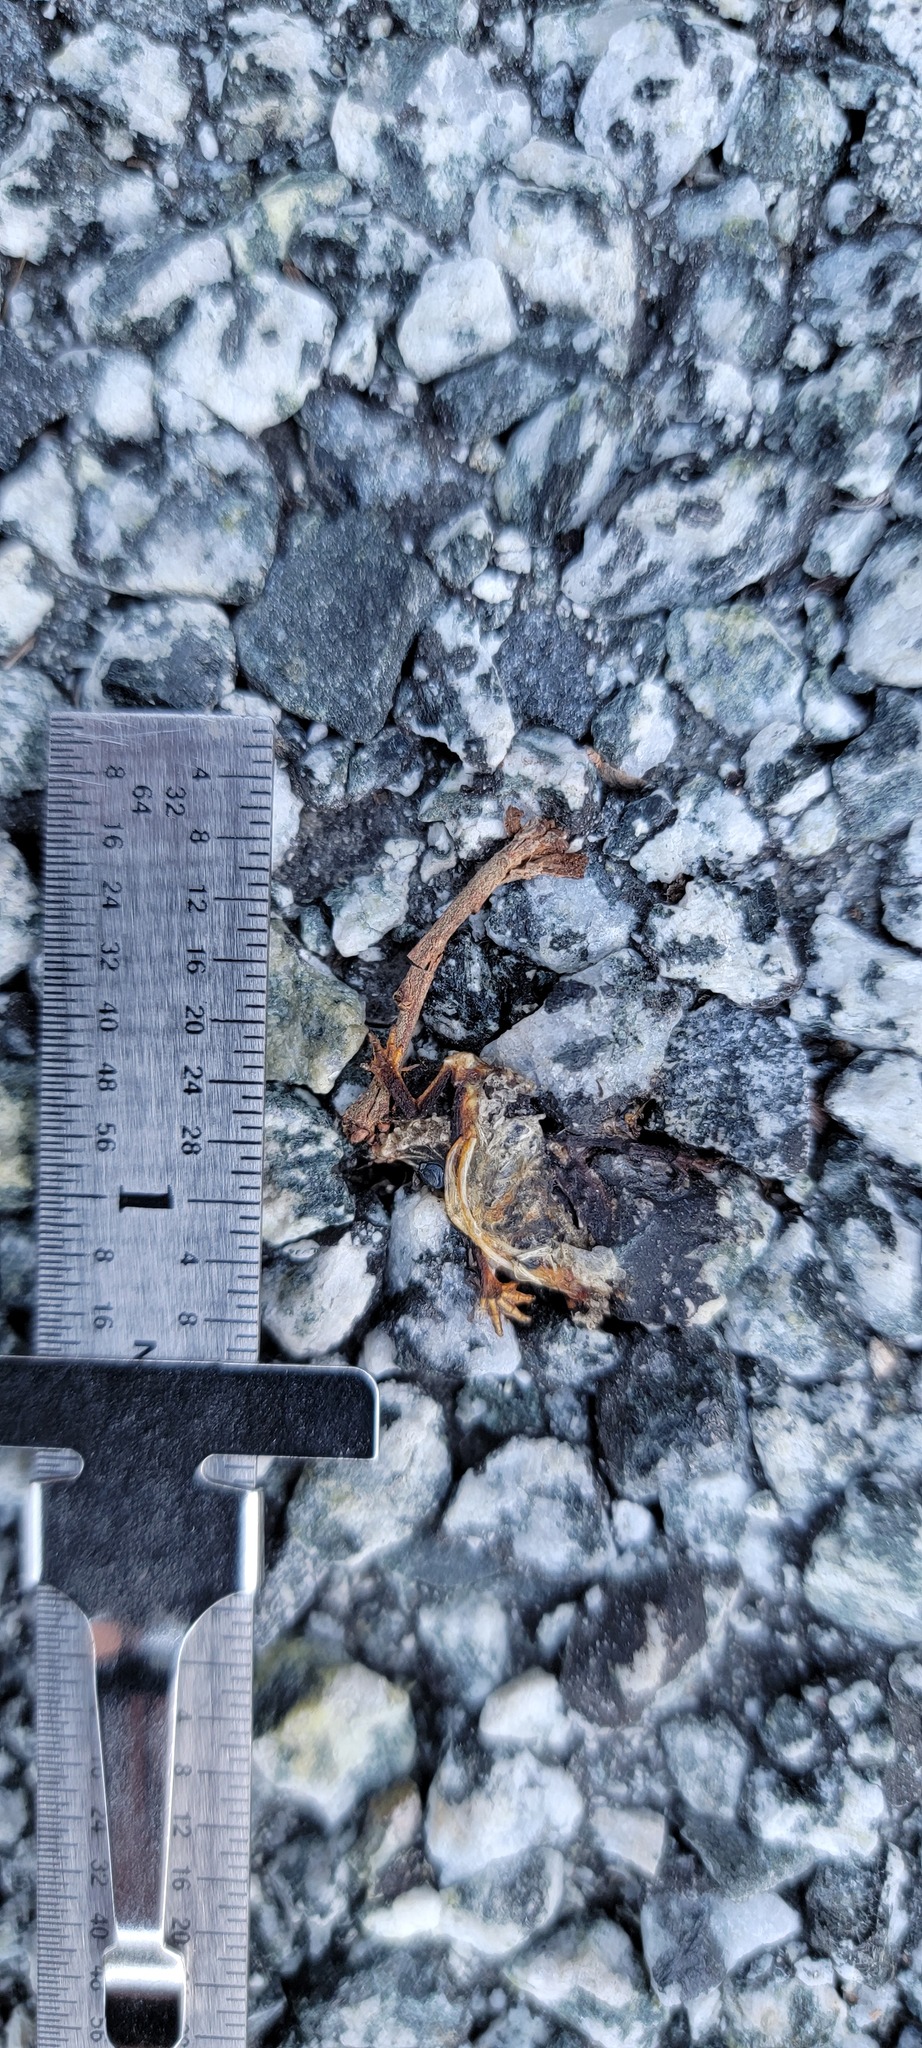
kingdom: Animalia
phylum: Chordata
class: Amphibia
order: Caudata
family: Salamandridae
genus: Taricha
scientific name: Taricha
